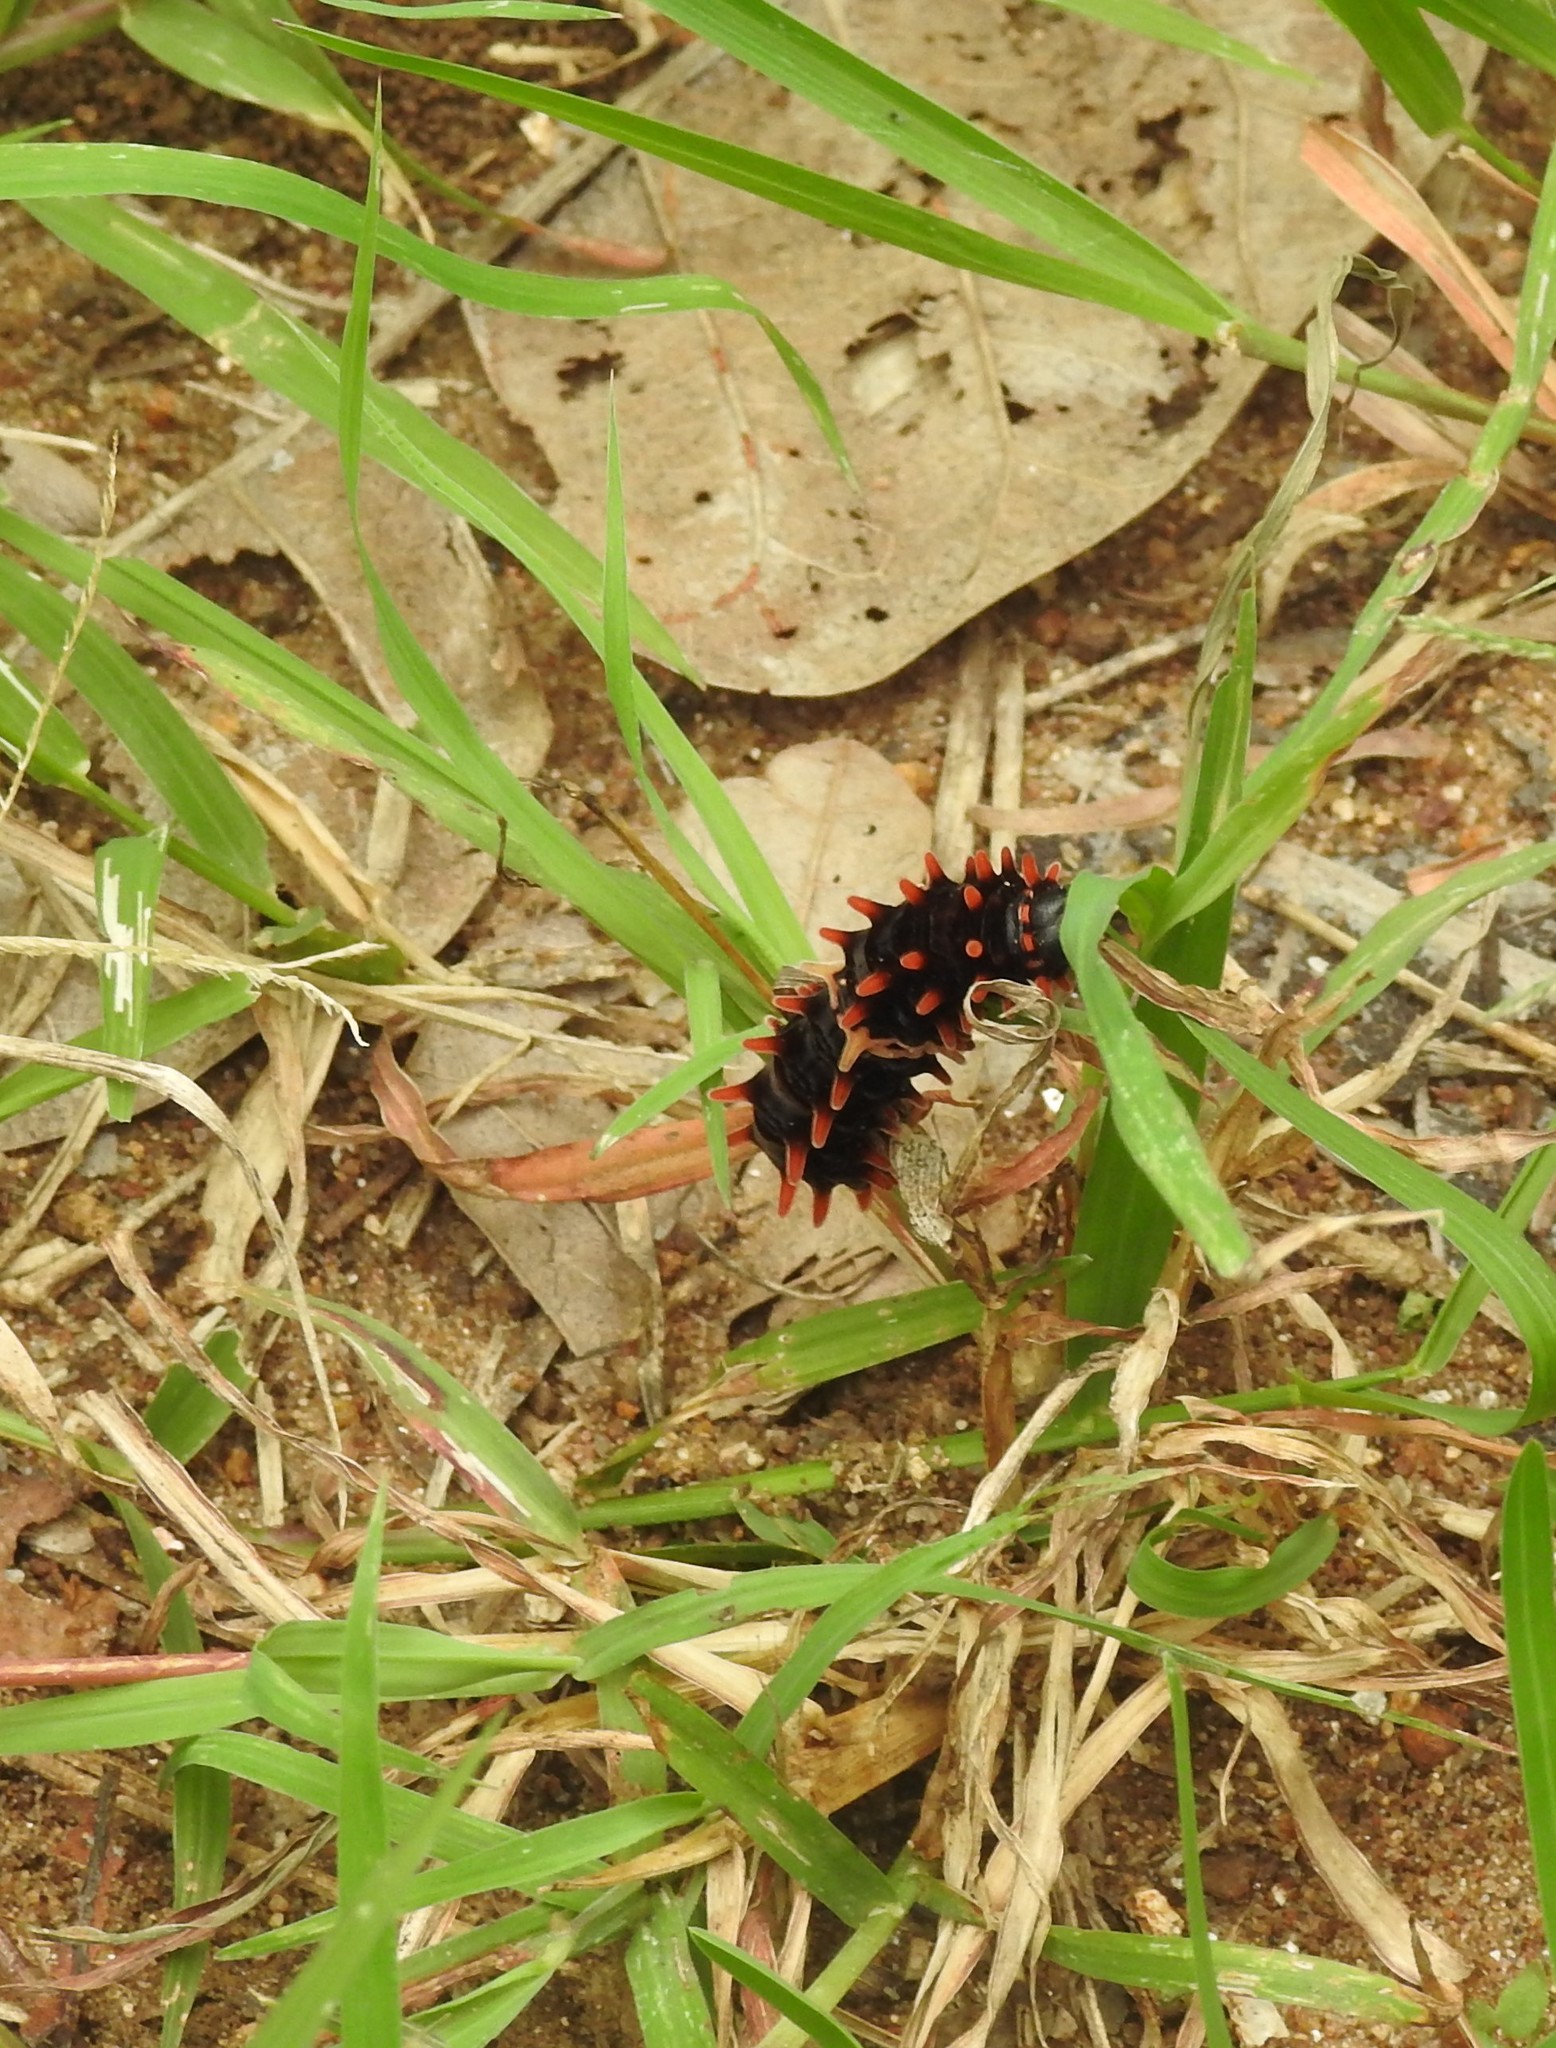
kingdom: Animalia
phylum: Arthropoda
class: Insecta
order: Lepidoptera
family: Papilionidae
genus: Pachliopta
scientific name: Pachliopta aristolochiae
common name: Common rose
